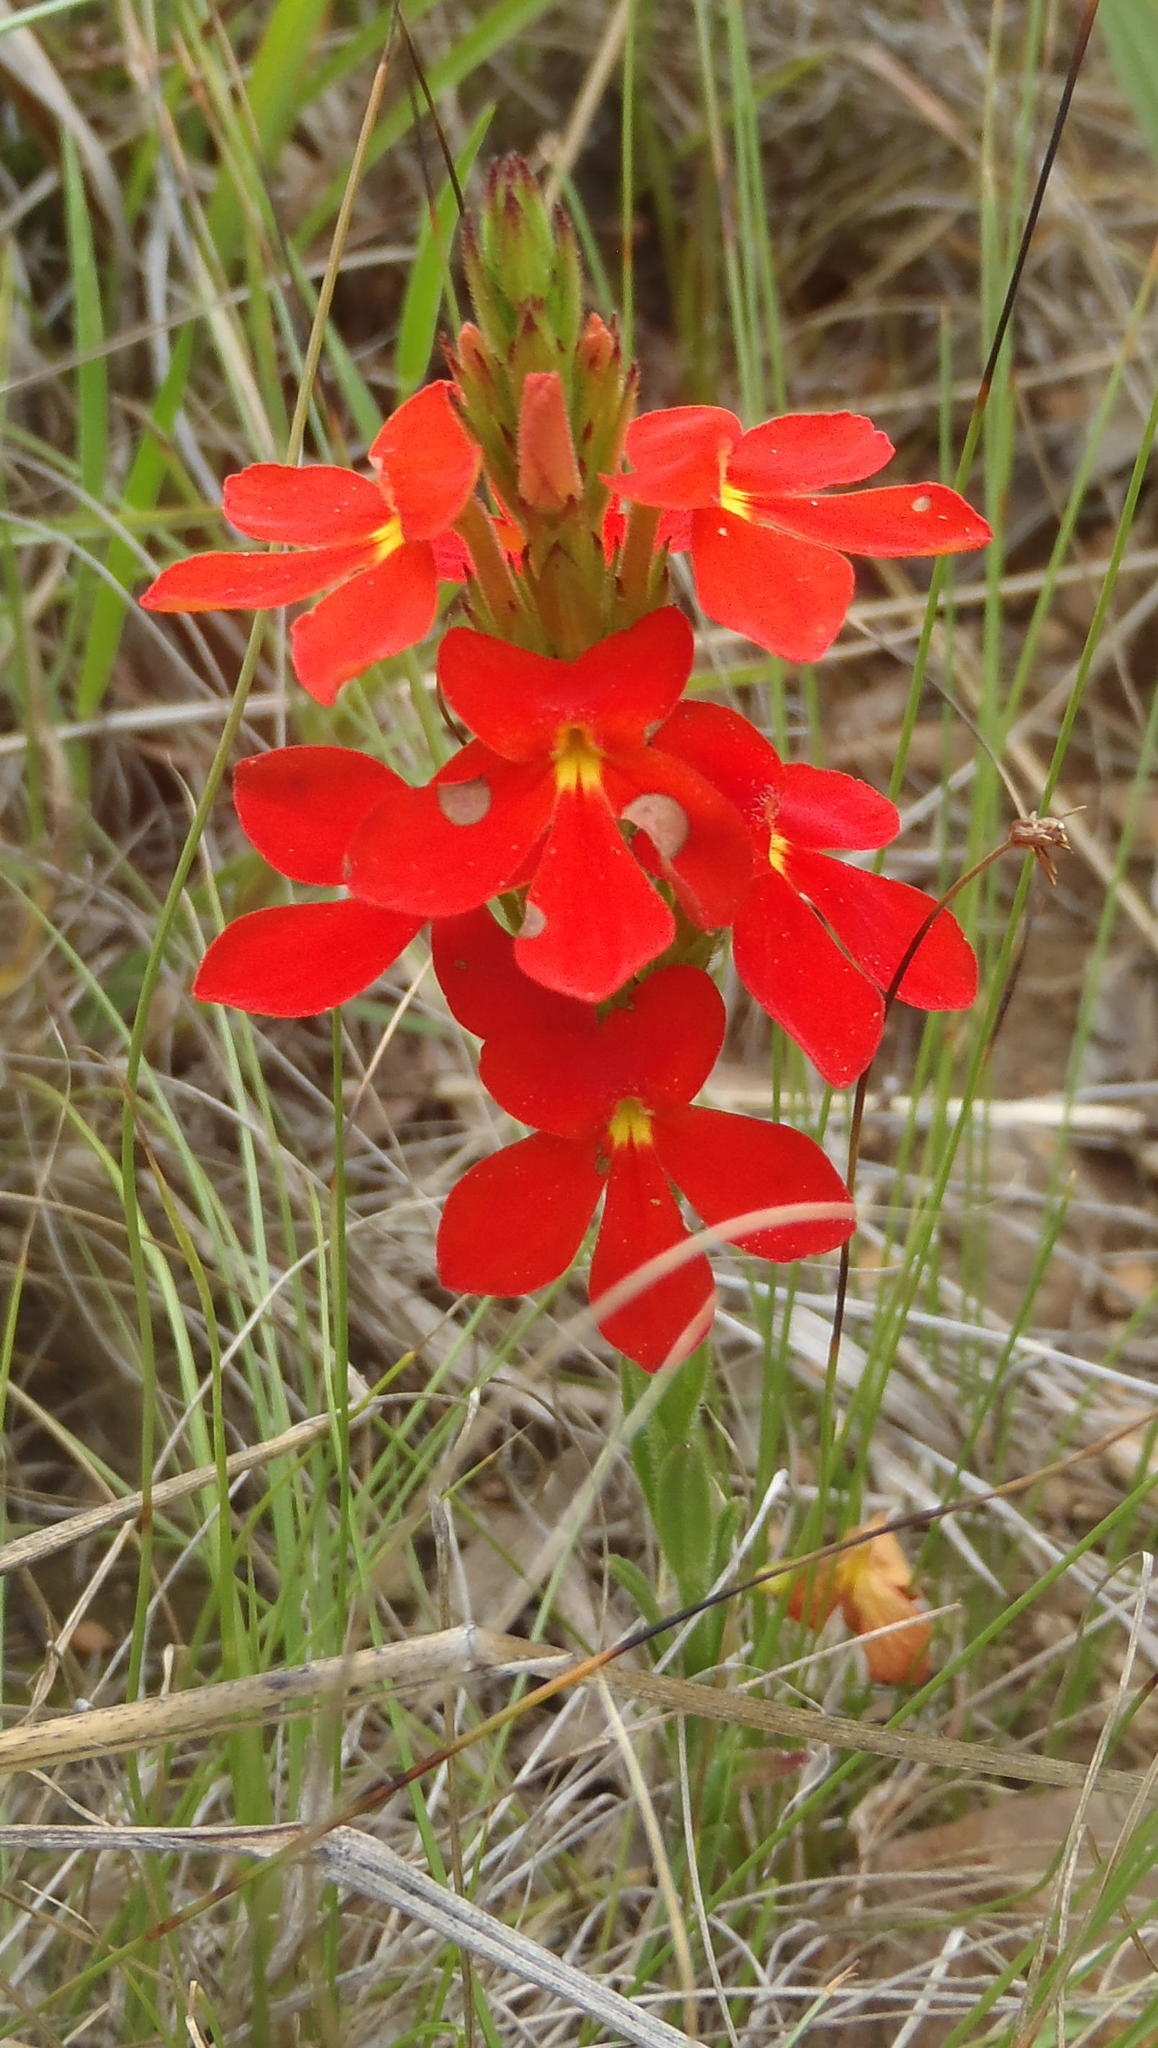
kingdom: Plantae
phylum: Tracheophyta
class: Magnoliopsida
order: Lamiales
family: Orobanchaceae
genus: Striga
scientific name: Striga elegans
